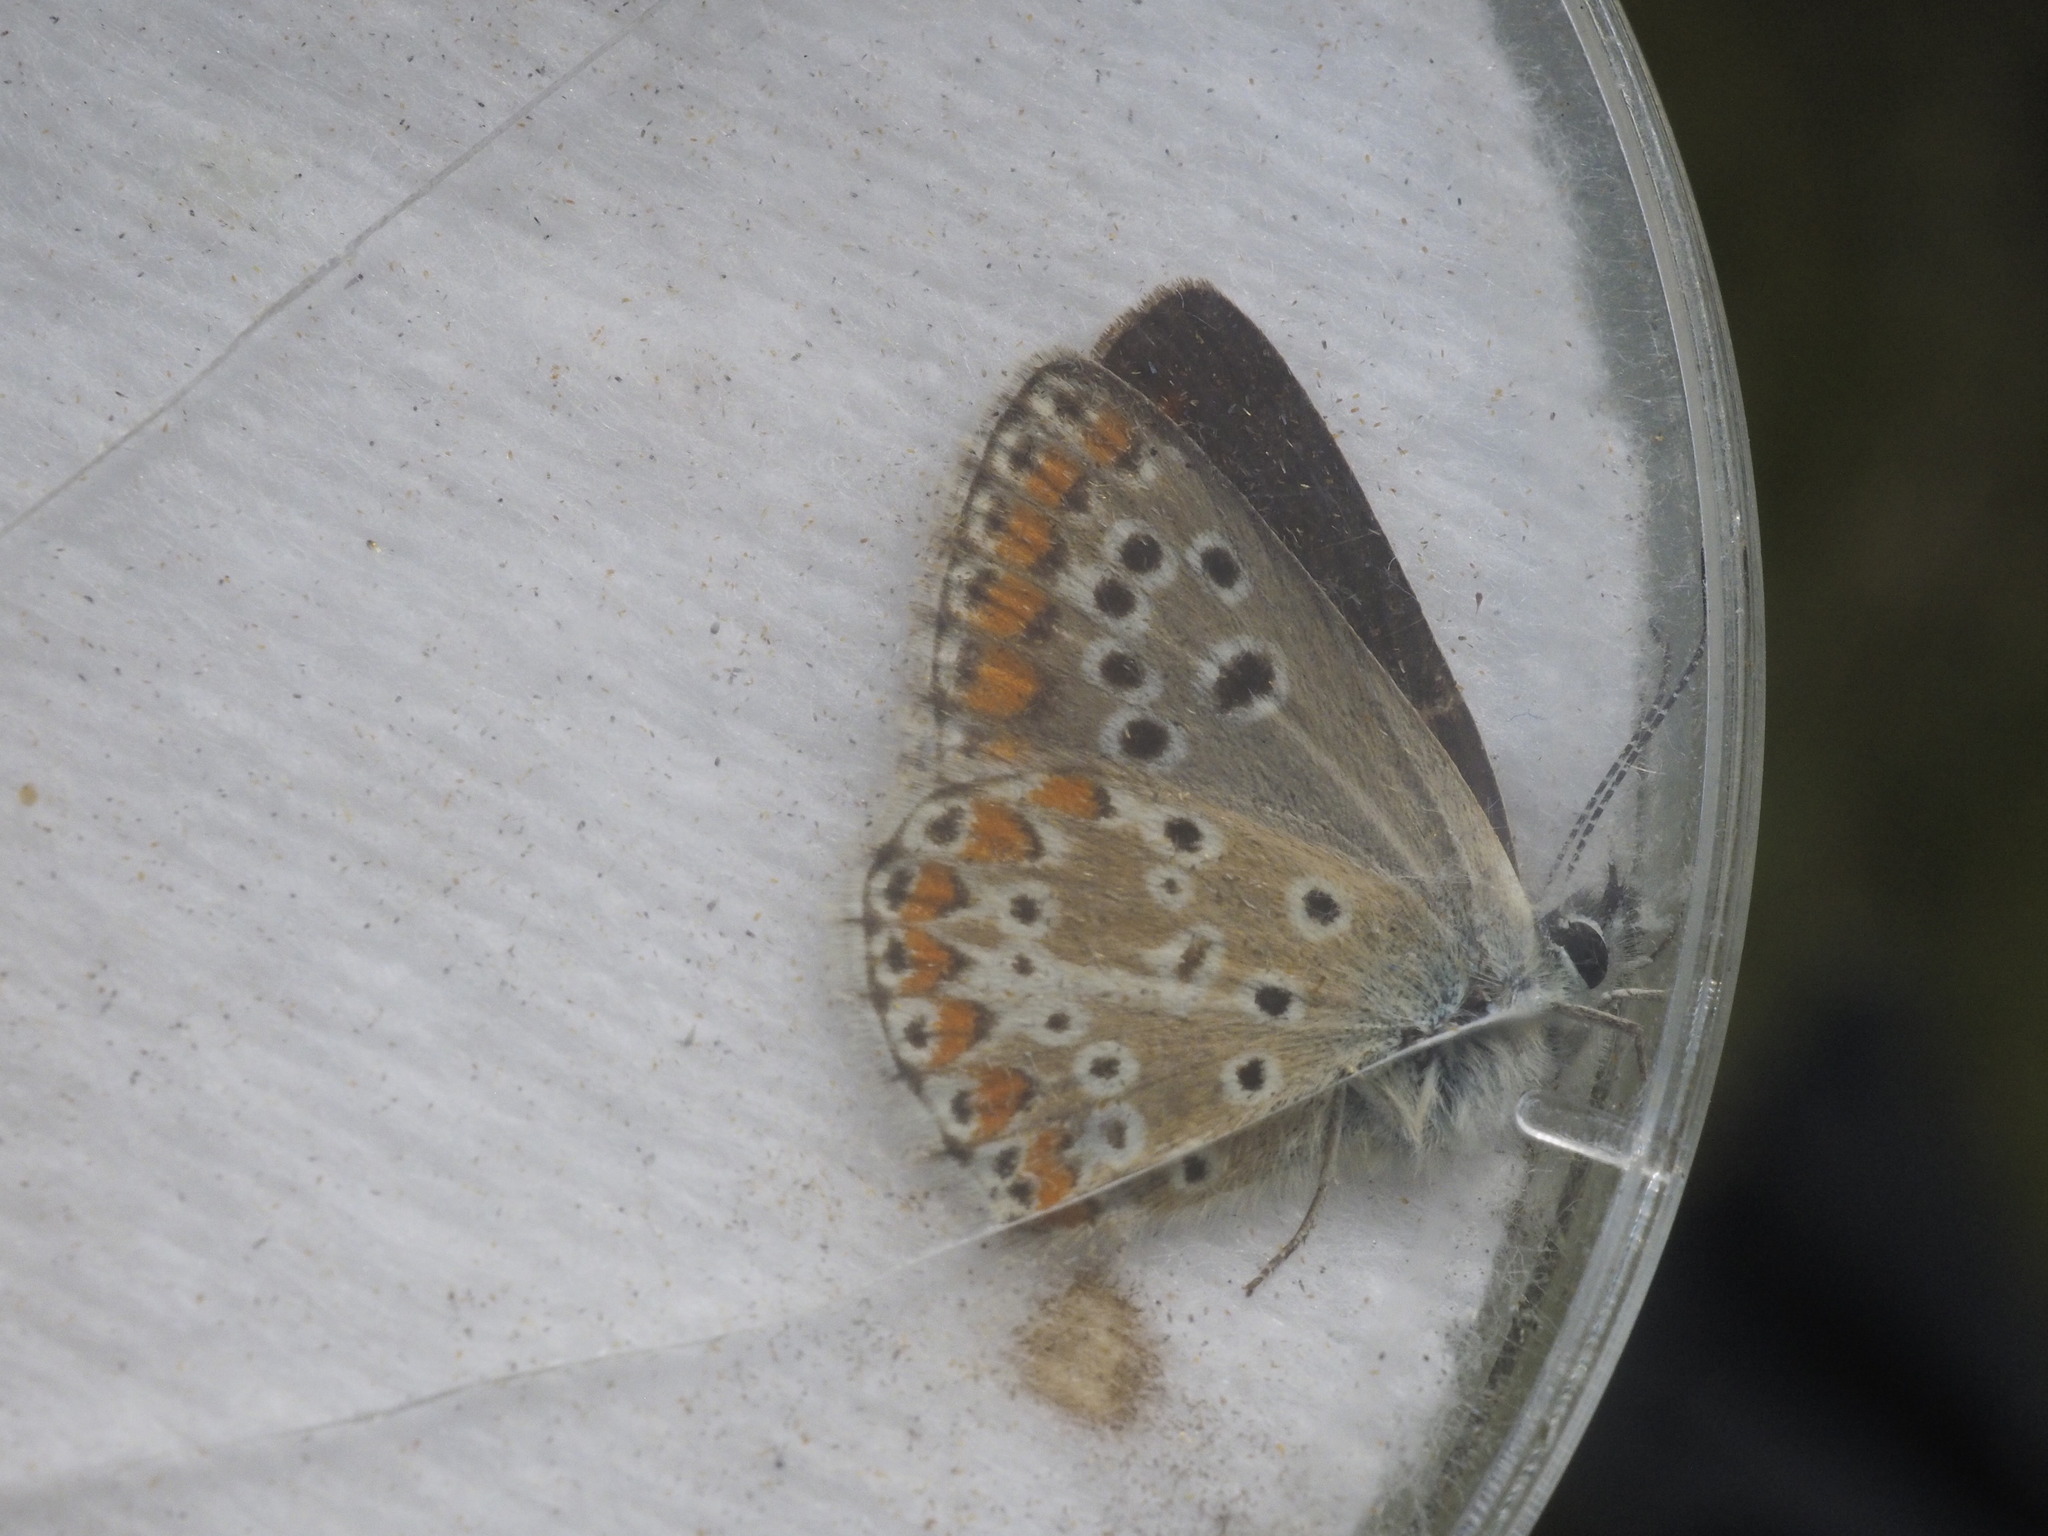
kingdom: Animalia
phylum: Arthropoda
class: Insecta
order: Lepidoptera
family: Lycaenidae
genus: Aricia
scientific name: Aricia agestis
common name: Brown argus
